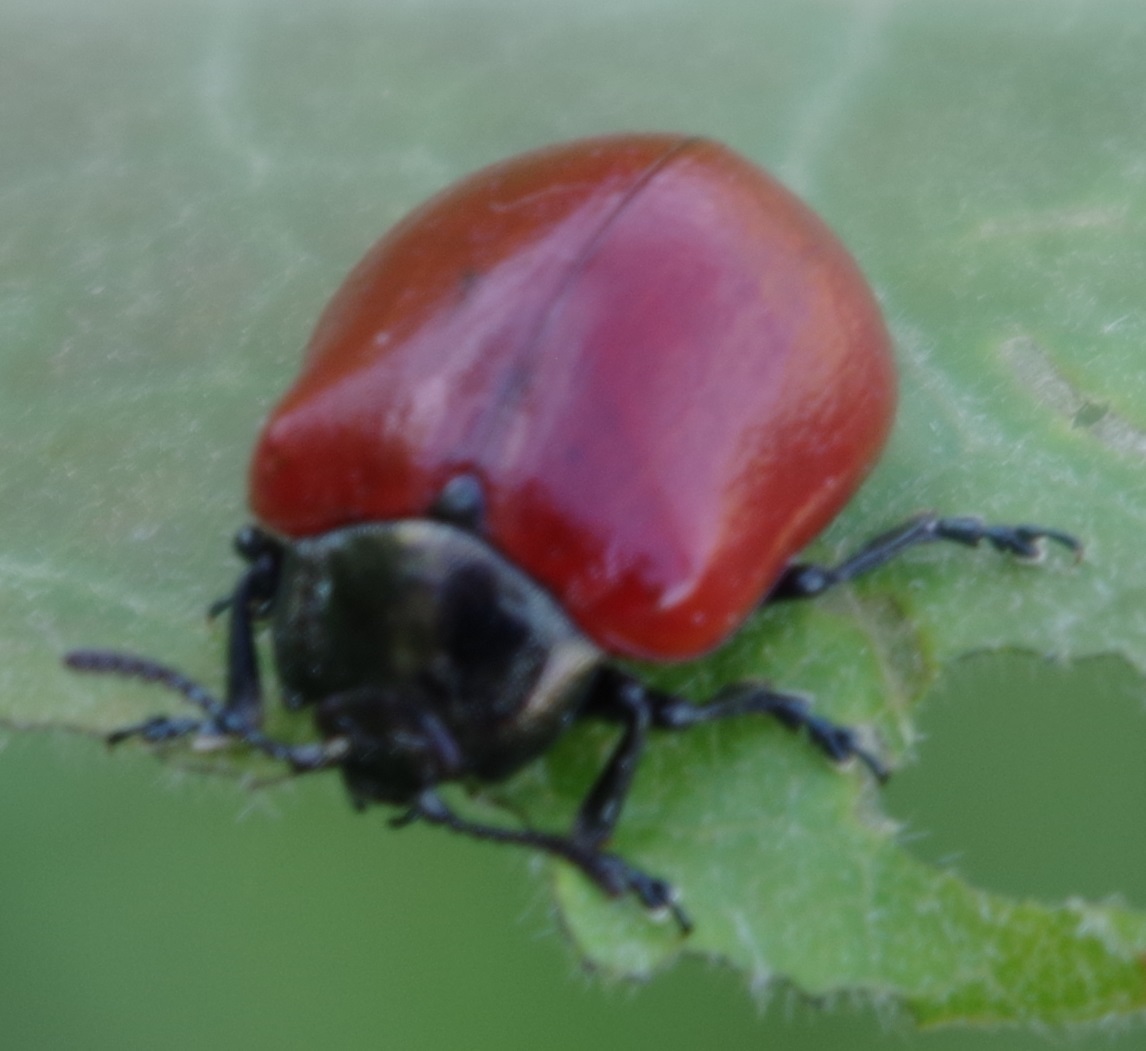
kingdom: Animalia
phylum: Arthropoda
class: Insecta
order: Coleoptera
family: Chrysomelidae
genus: Chrysomela
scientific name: Chrysomela populi
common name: Red poplar leaf beetle
